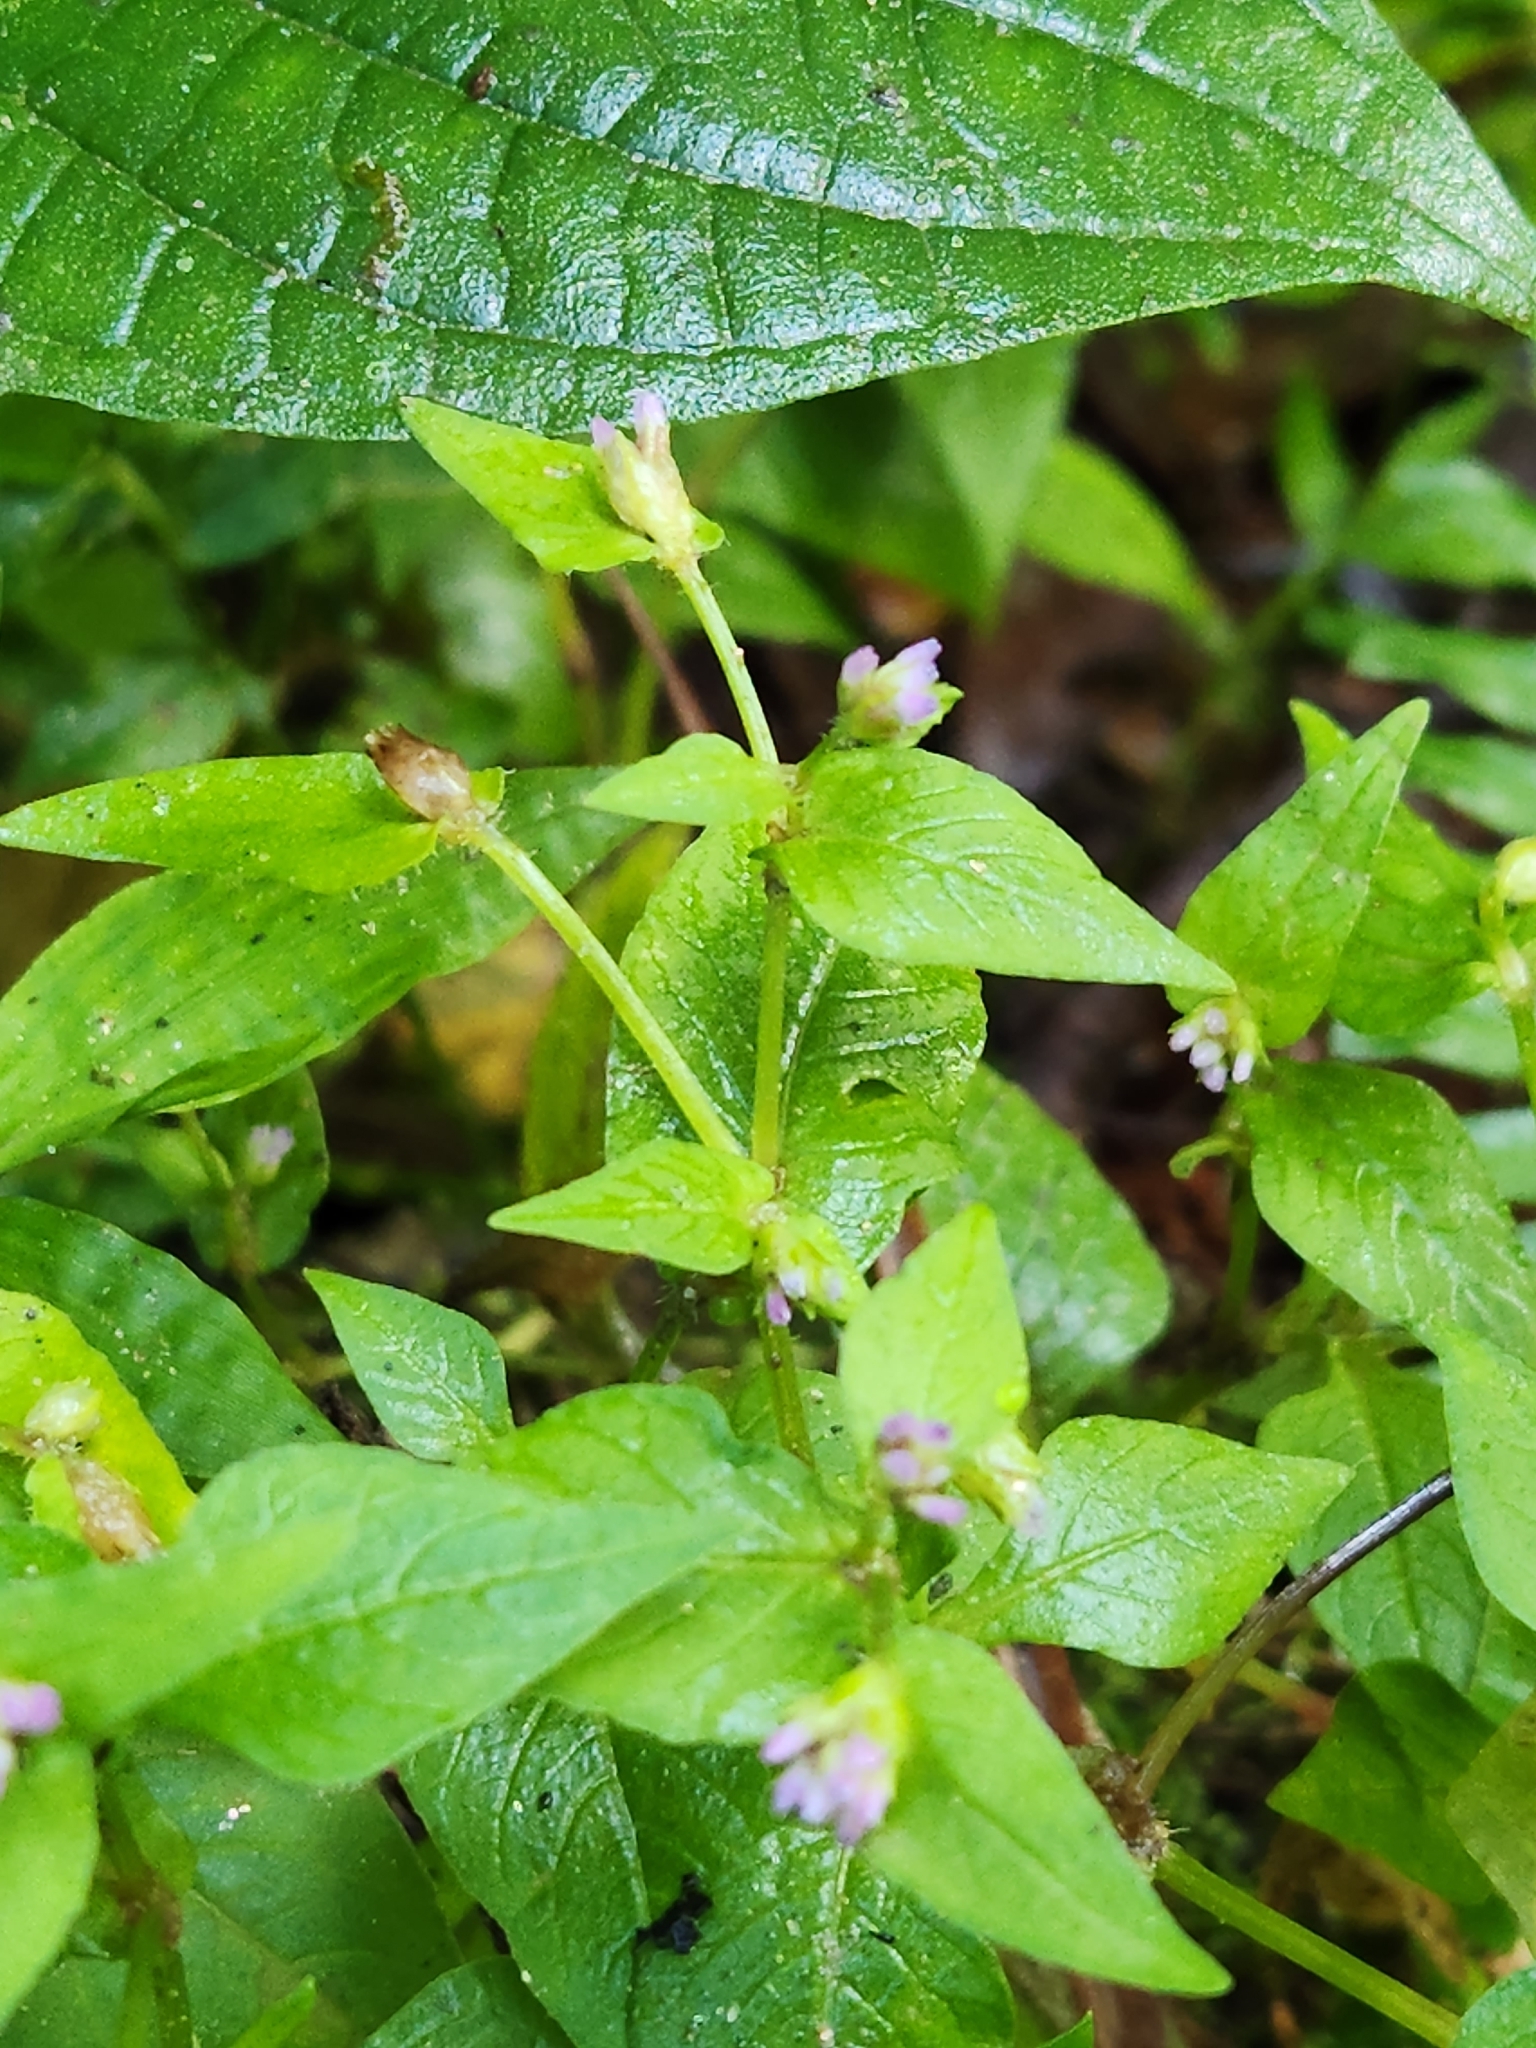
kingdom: Plantae
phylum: Tracheophyta
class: Magnoliopsida
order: Caryophyllales
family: Polygonaceae
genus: Persicaria
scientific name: Persicaria nepalensis
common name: Nepal persicaria
